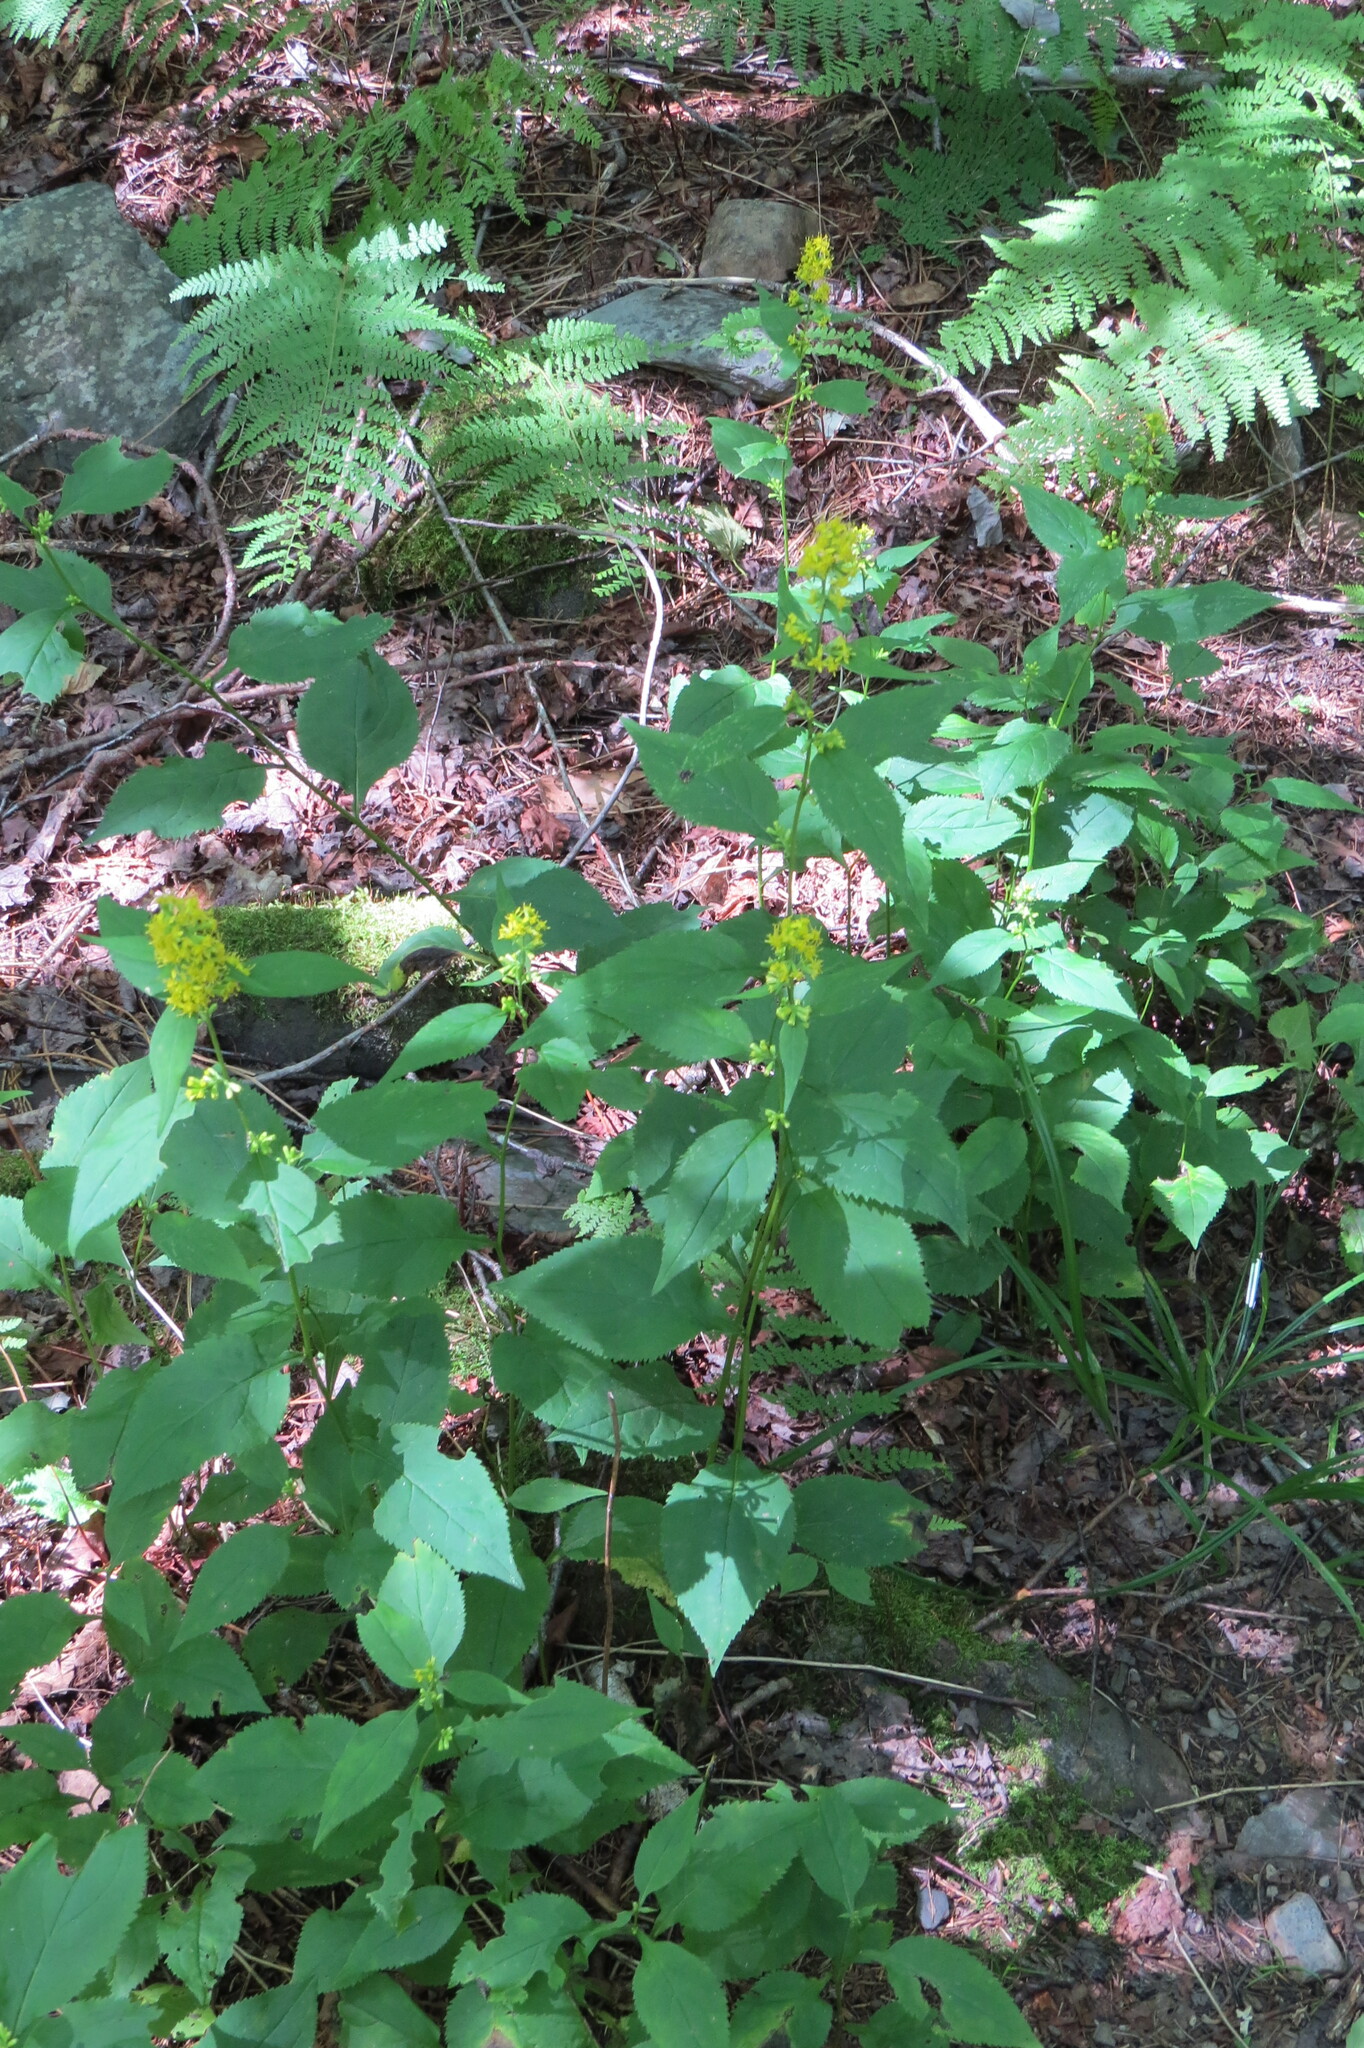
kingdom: Plantae
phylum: Tracheophyta
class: Magnoliopsida
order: Asterales
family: Asteraceae
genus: Solidago
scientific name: Solidago flexicaulis
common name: Zig-zag goldenrod
